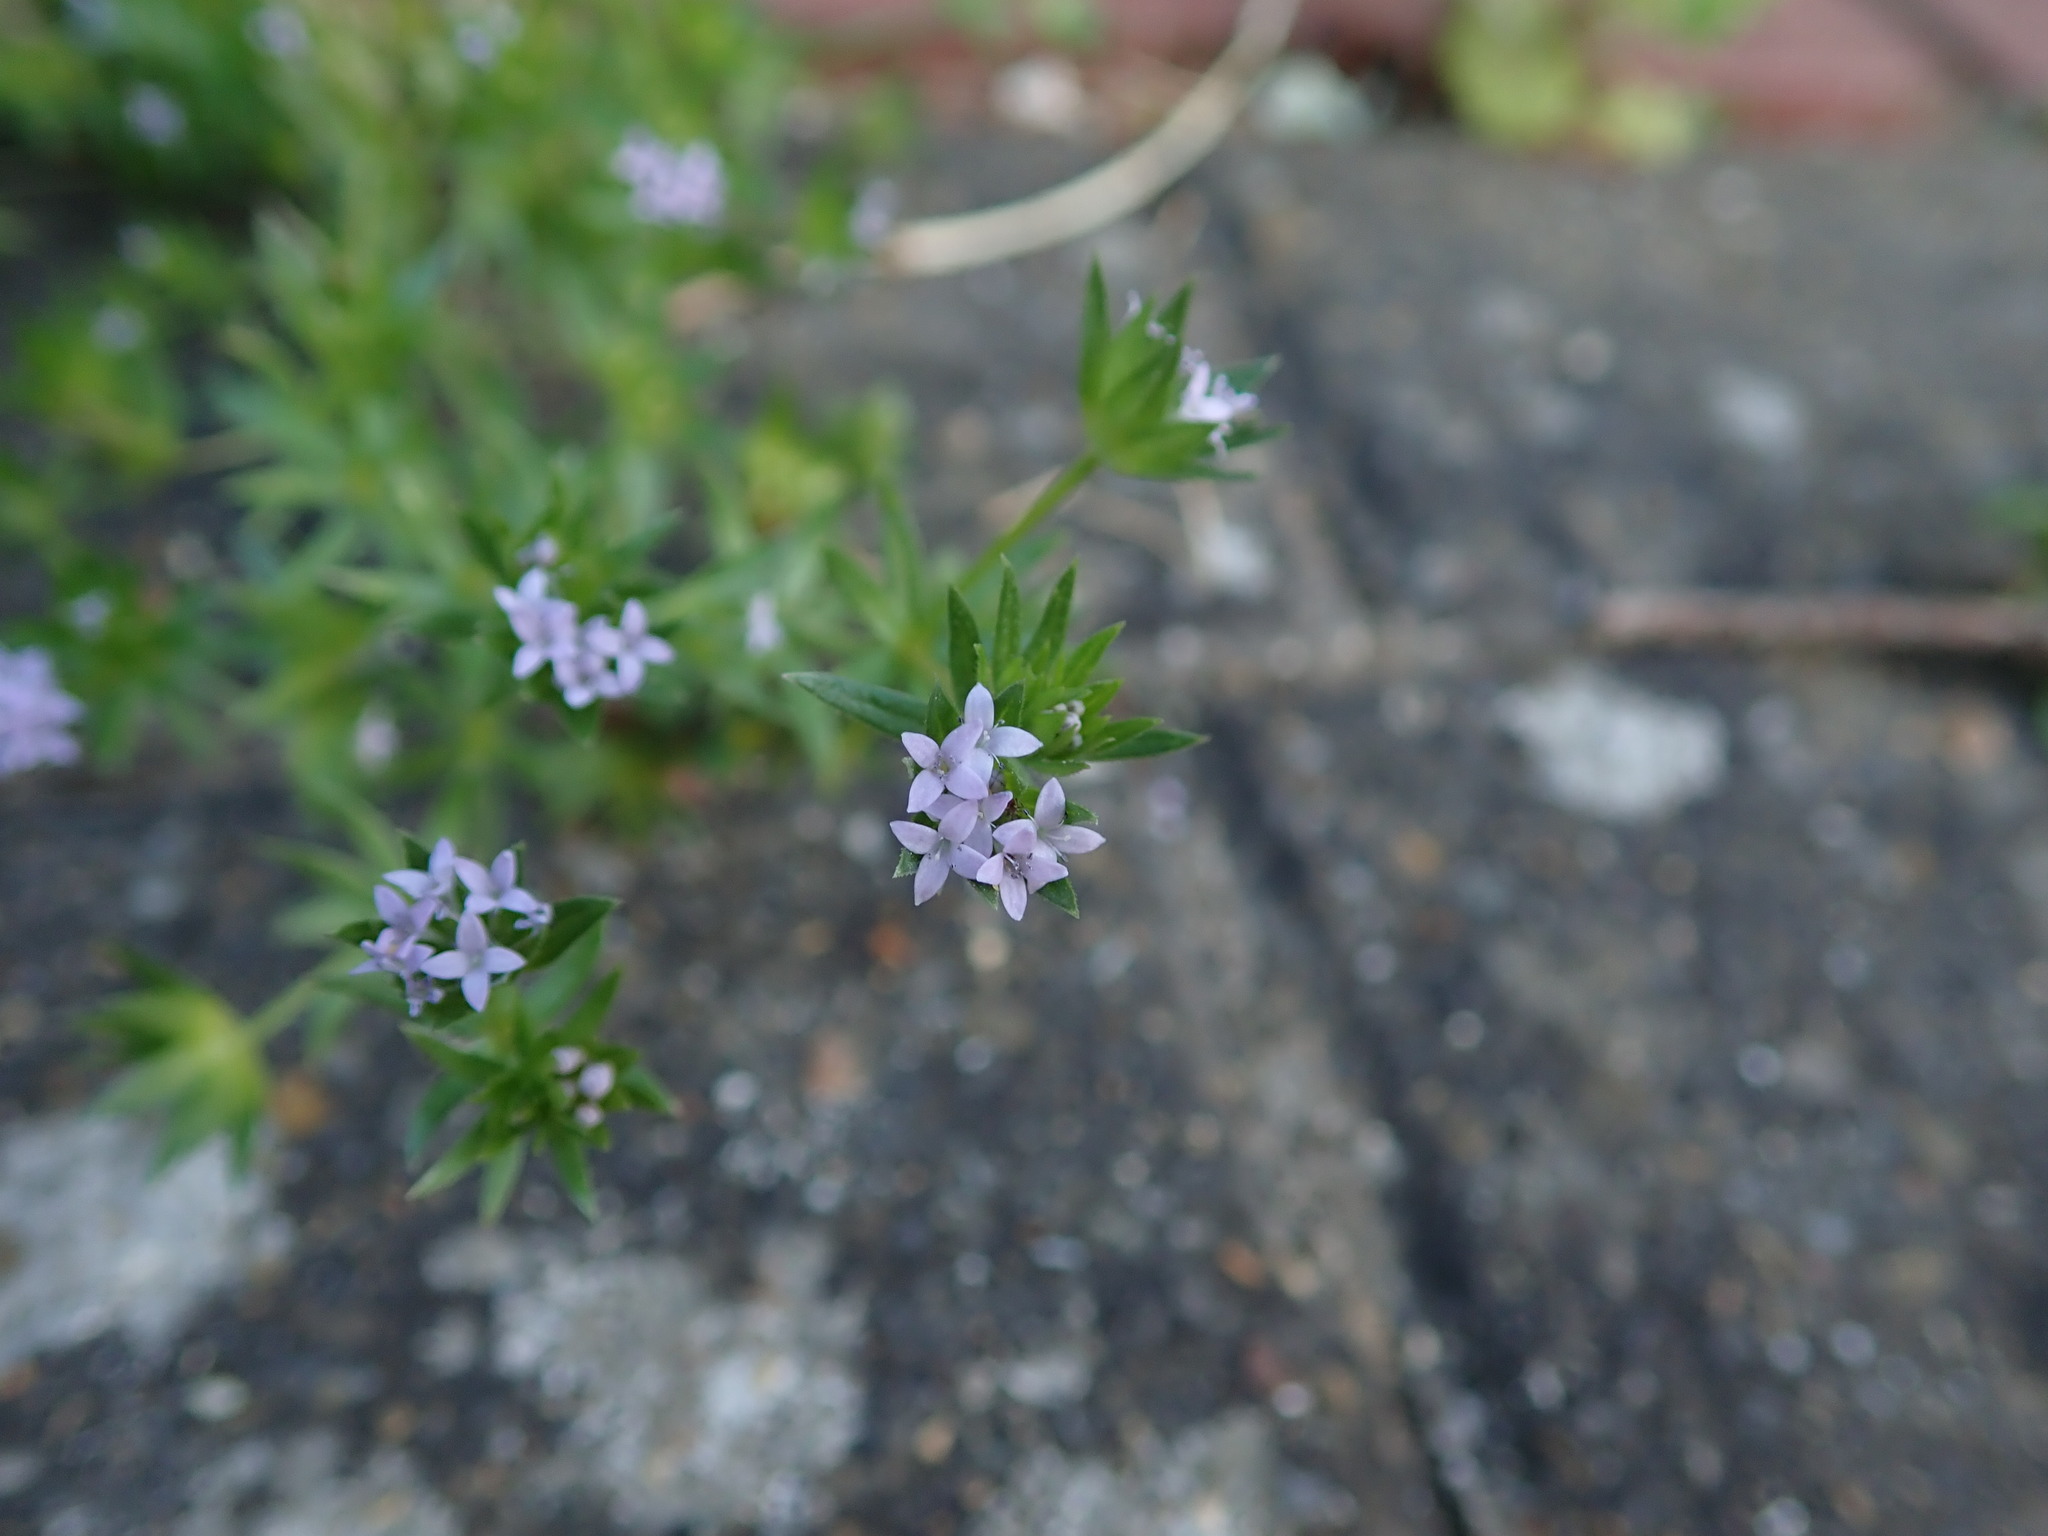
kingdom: Plantae
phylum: Tracheophyta
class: Magnoliopsida
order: Gentianales
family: Rubiaceae
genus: Sherardia
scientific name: Sherardia arvensis
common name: Field madder
